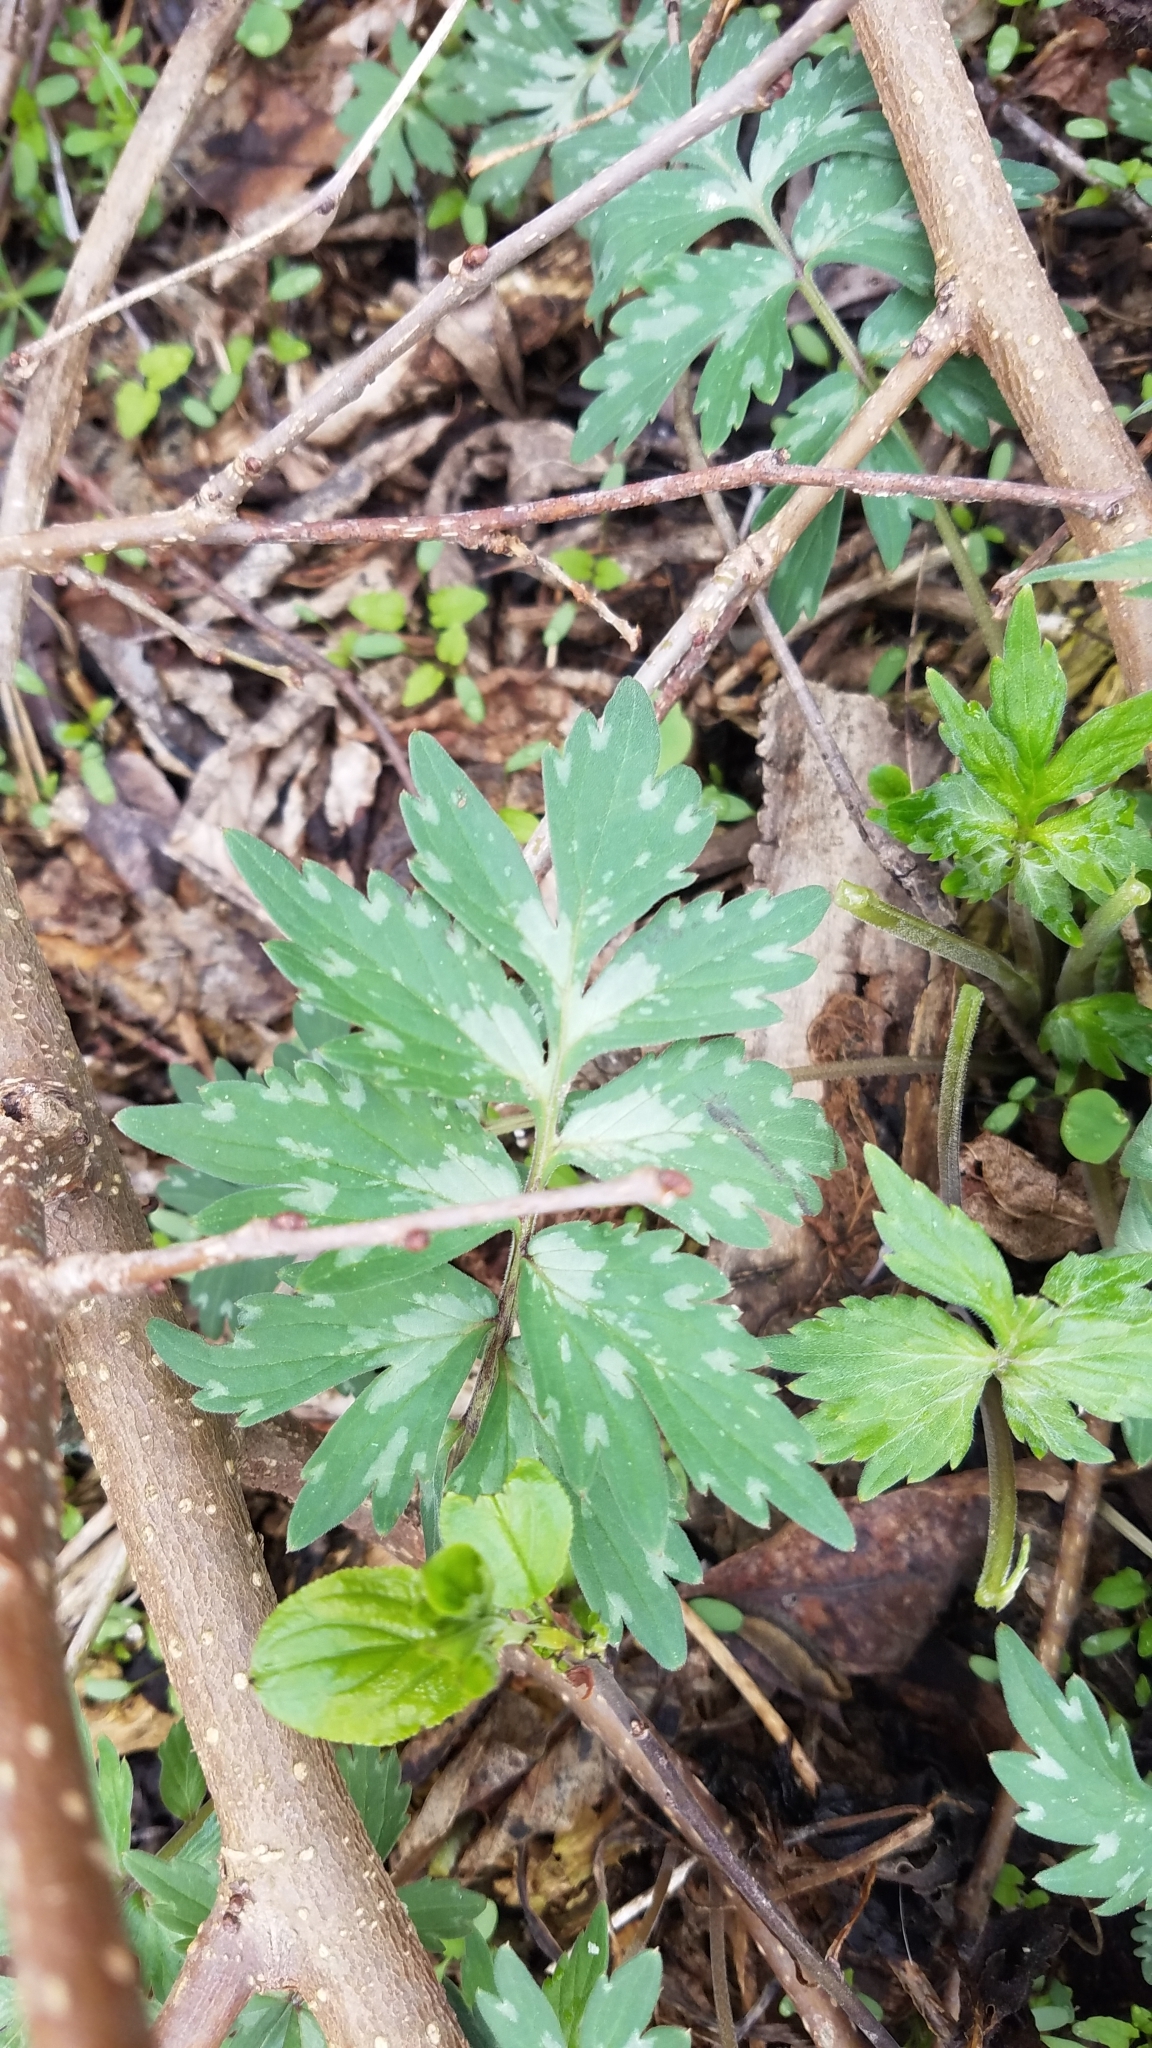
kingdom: Plantae
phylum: Tracheophyta
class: Magnoliopsida
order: Boraginales
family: Hydrophyllaceae
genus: Hydrophyllum
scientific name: Hydrophyllum virginianum
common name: Virginia waterleaf
